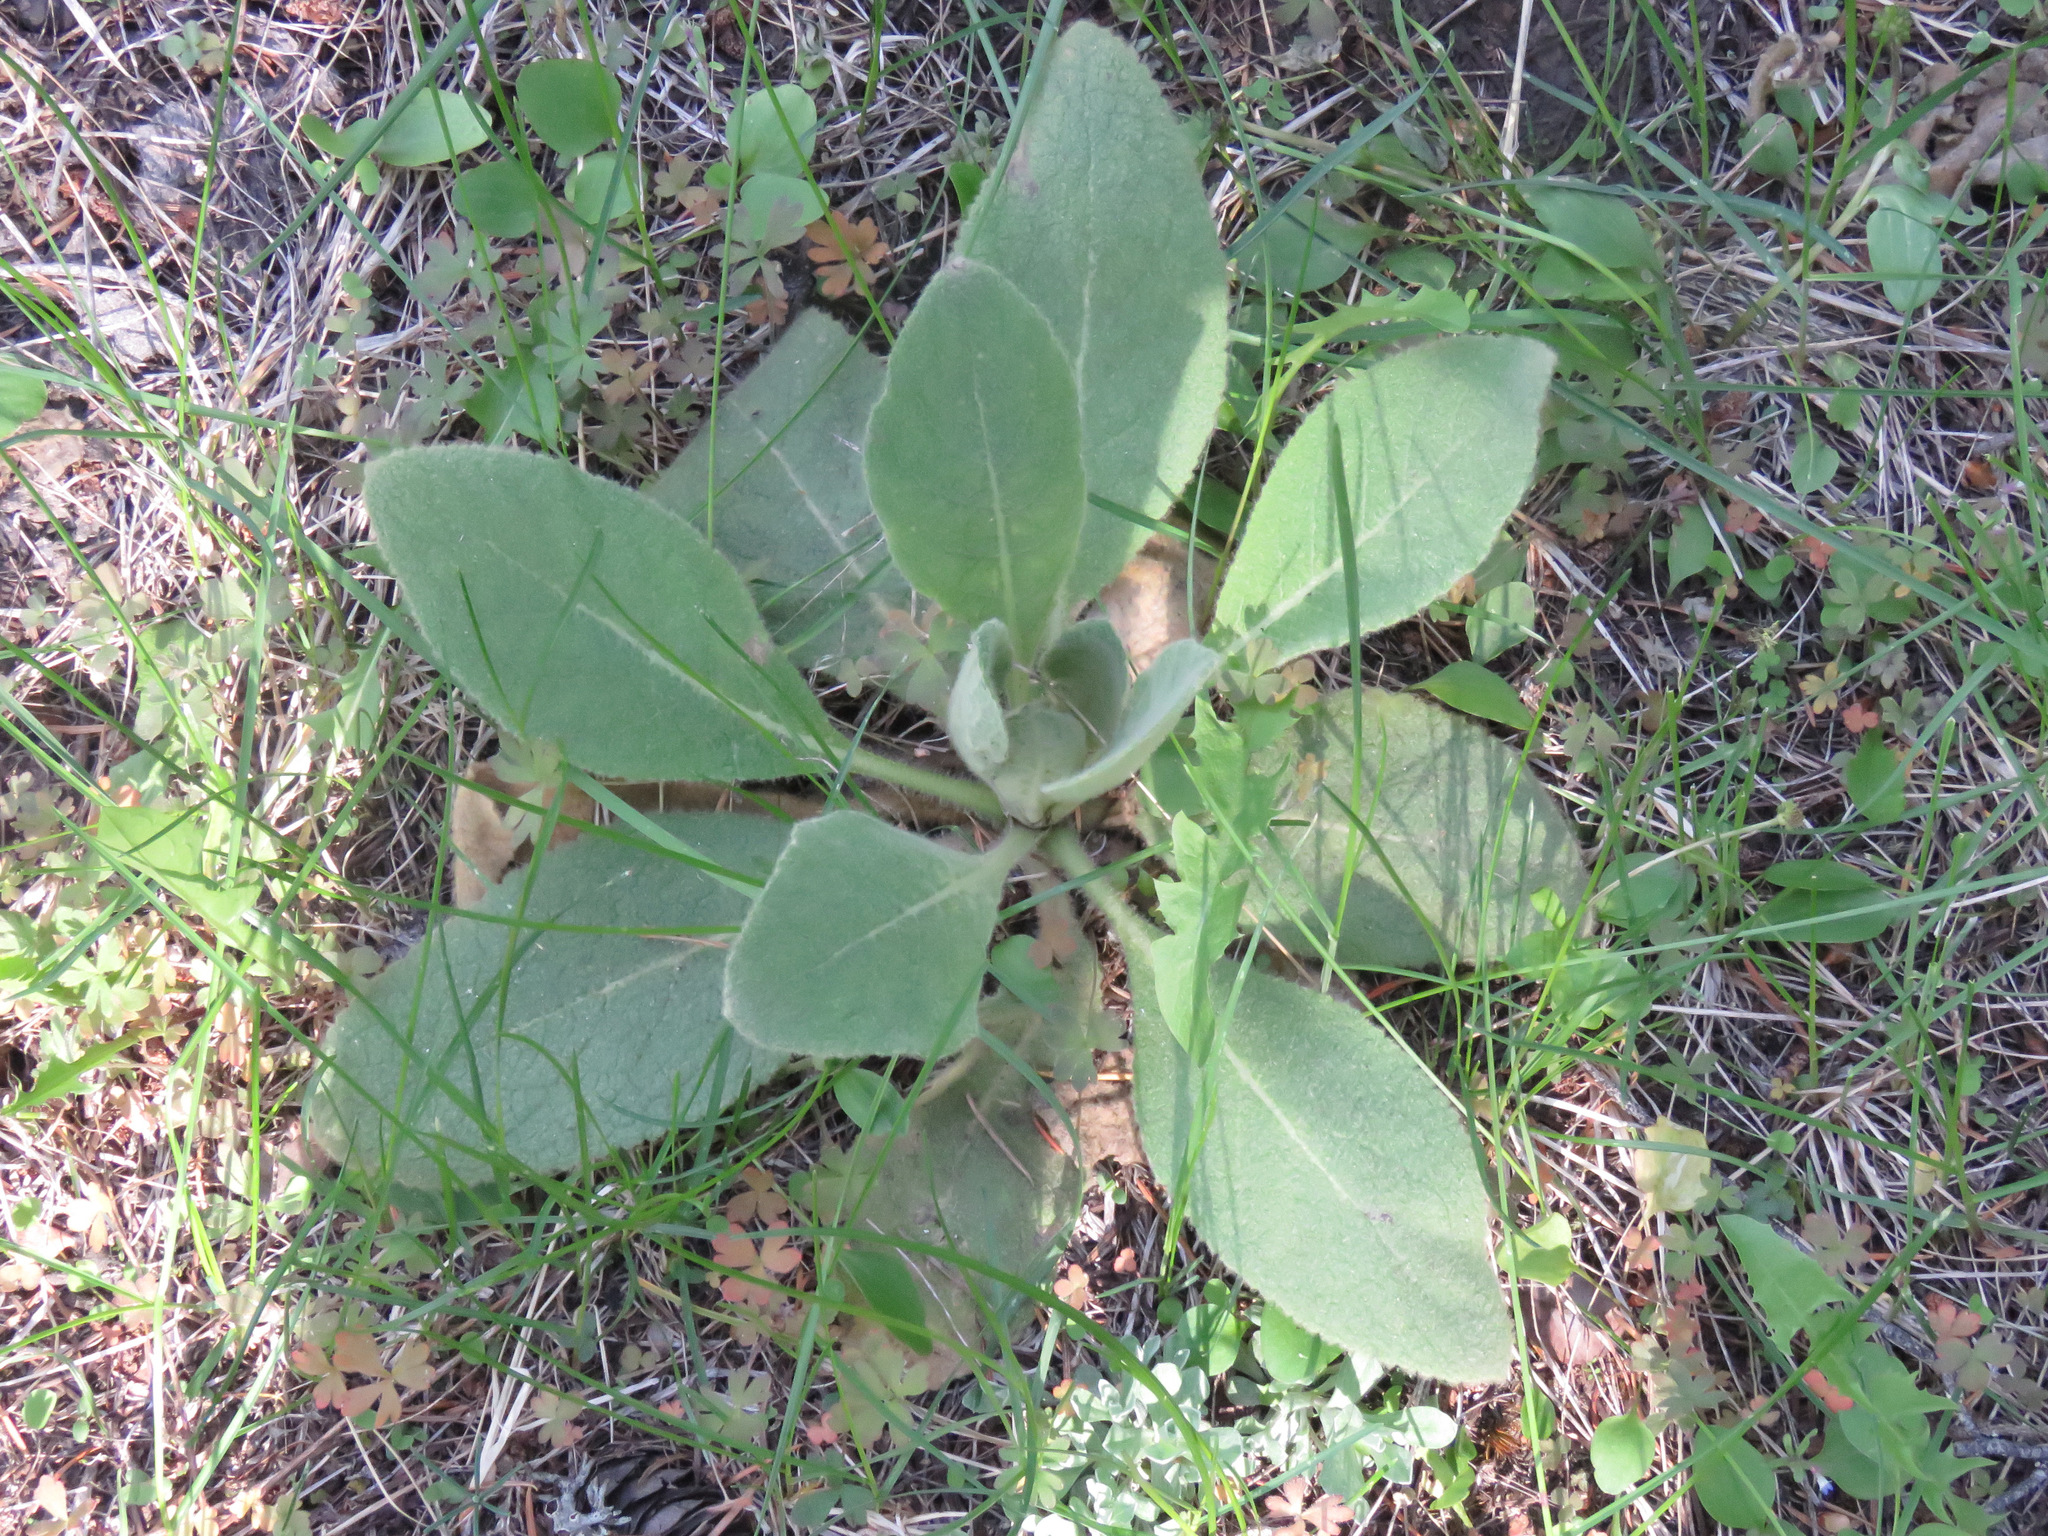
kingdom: Plantae
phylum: Tracheophyta
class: Magnoliopsida
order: Lamiales
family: Scrophulariaceae
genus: Verbascum
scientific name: Verbascum thapsus
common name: Common mullein
